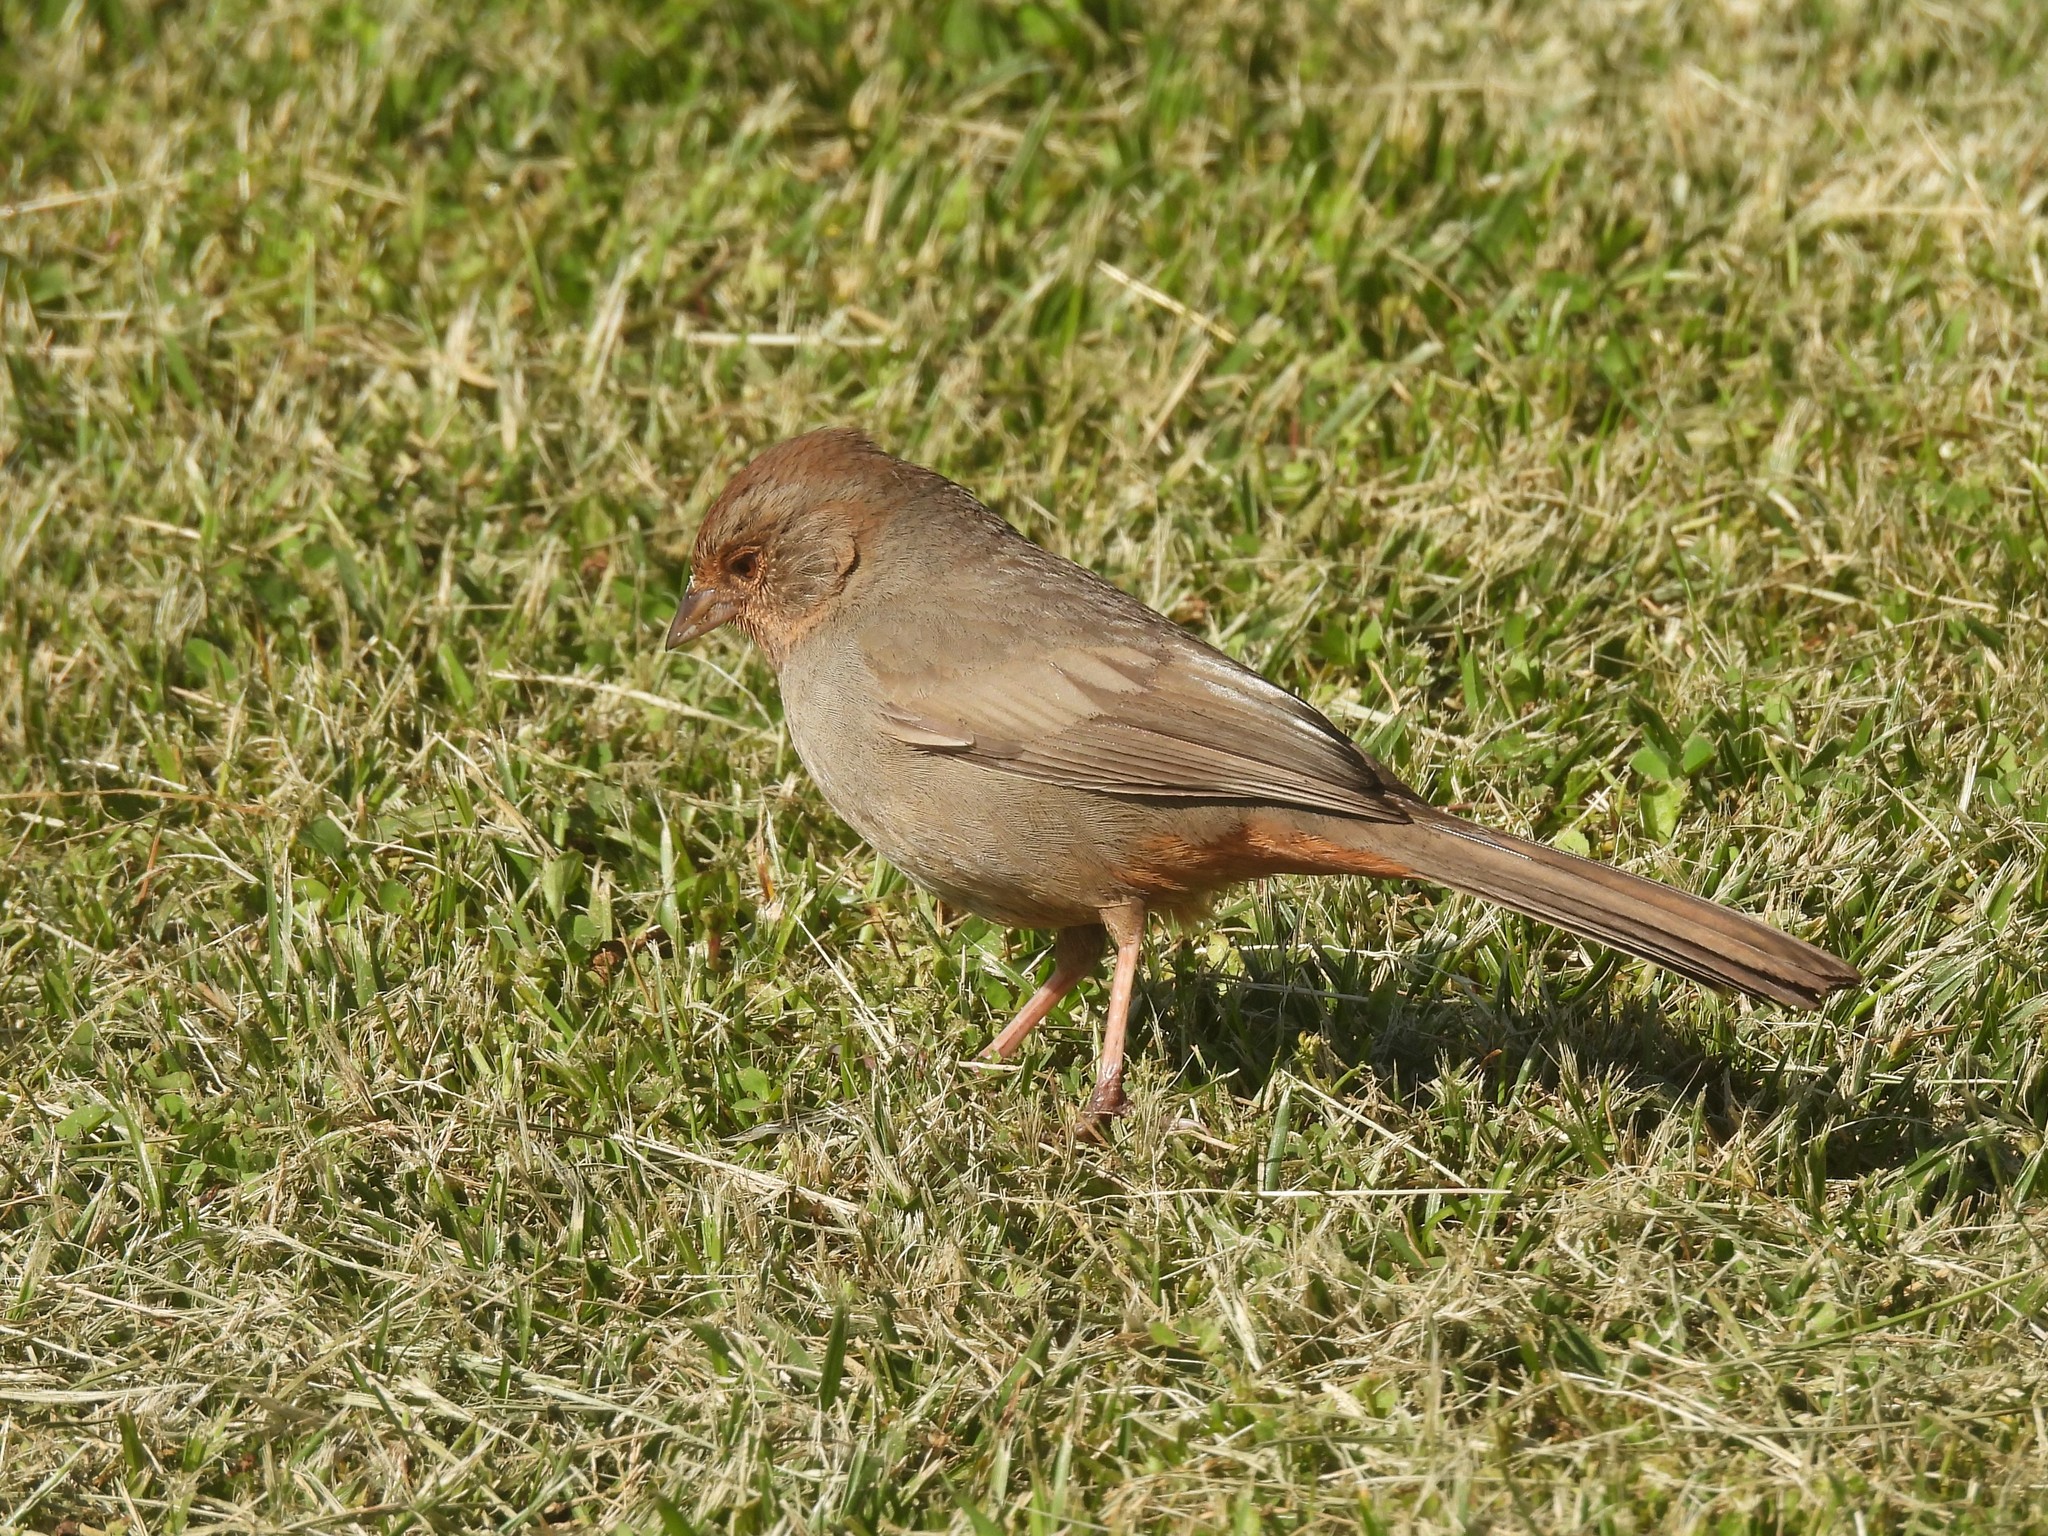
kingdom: Animalia
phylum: Chordata
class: Aves
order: Passeriformes
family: Passerellidae
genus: Melozone
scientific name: Melozone crissalis
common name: California towhee
